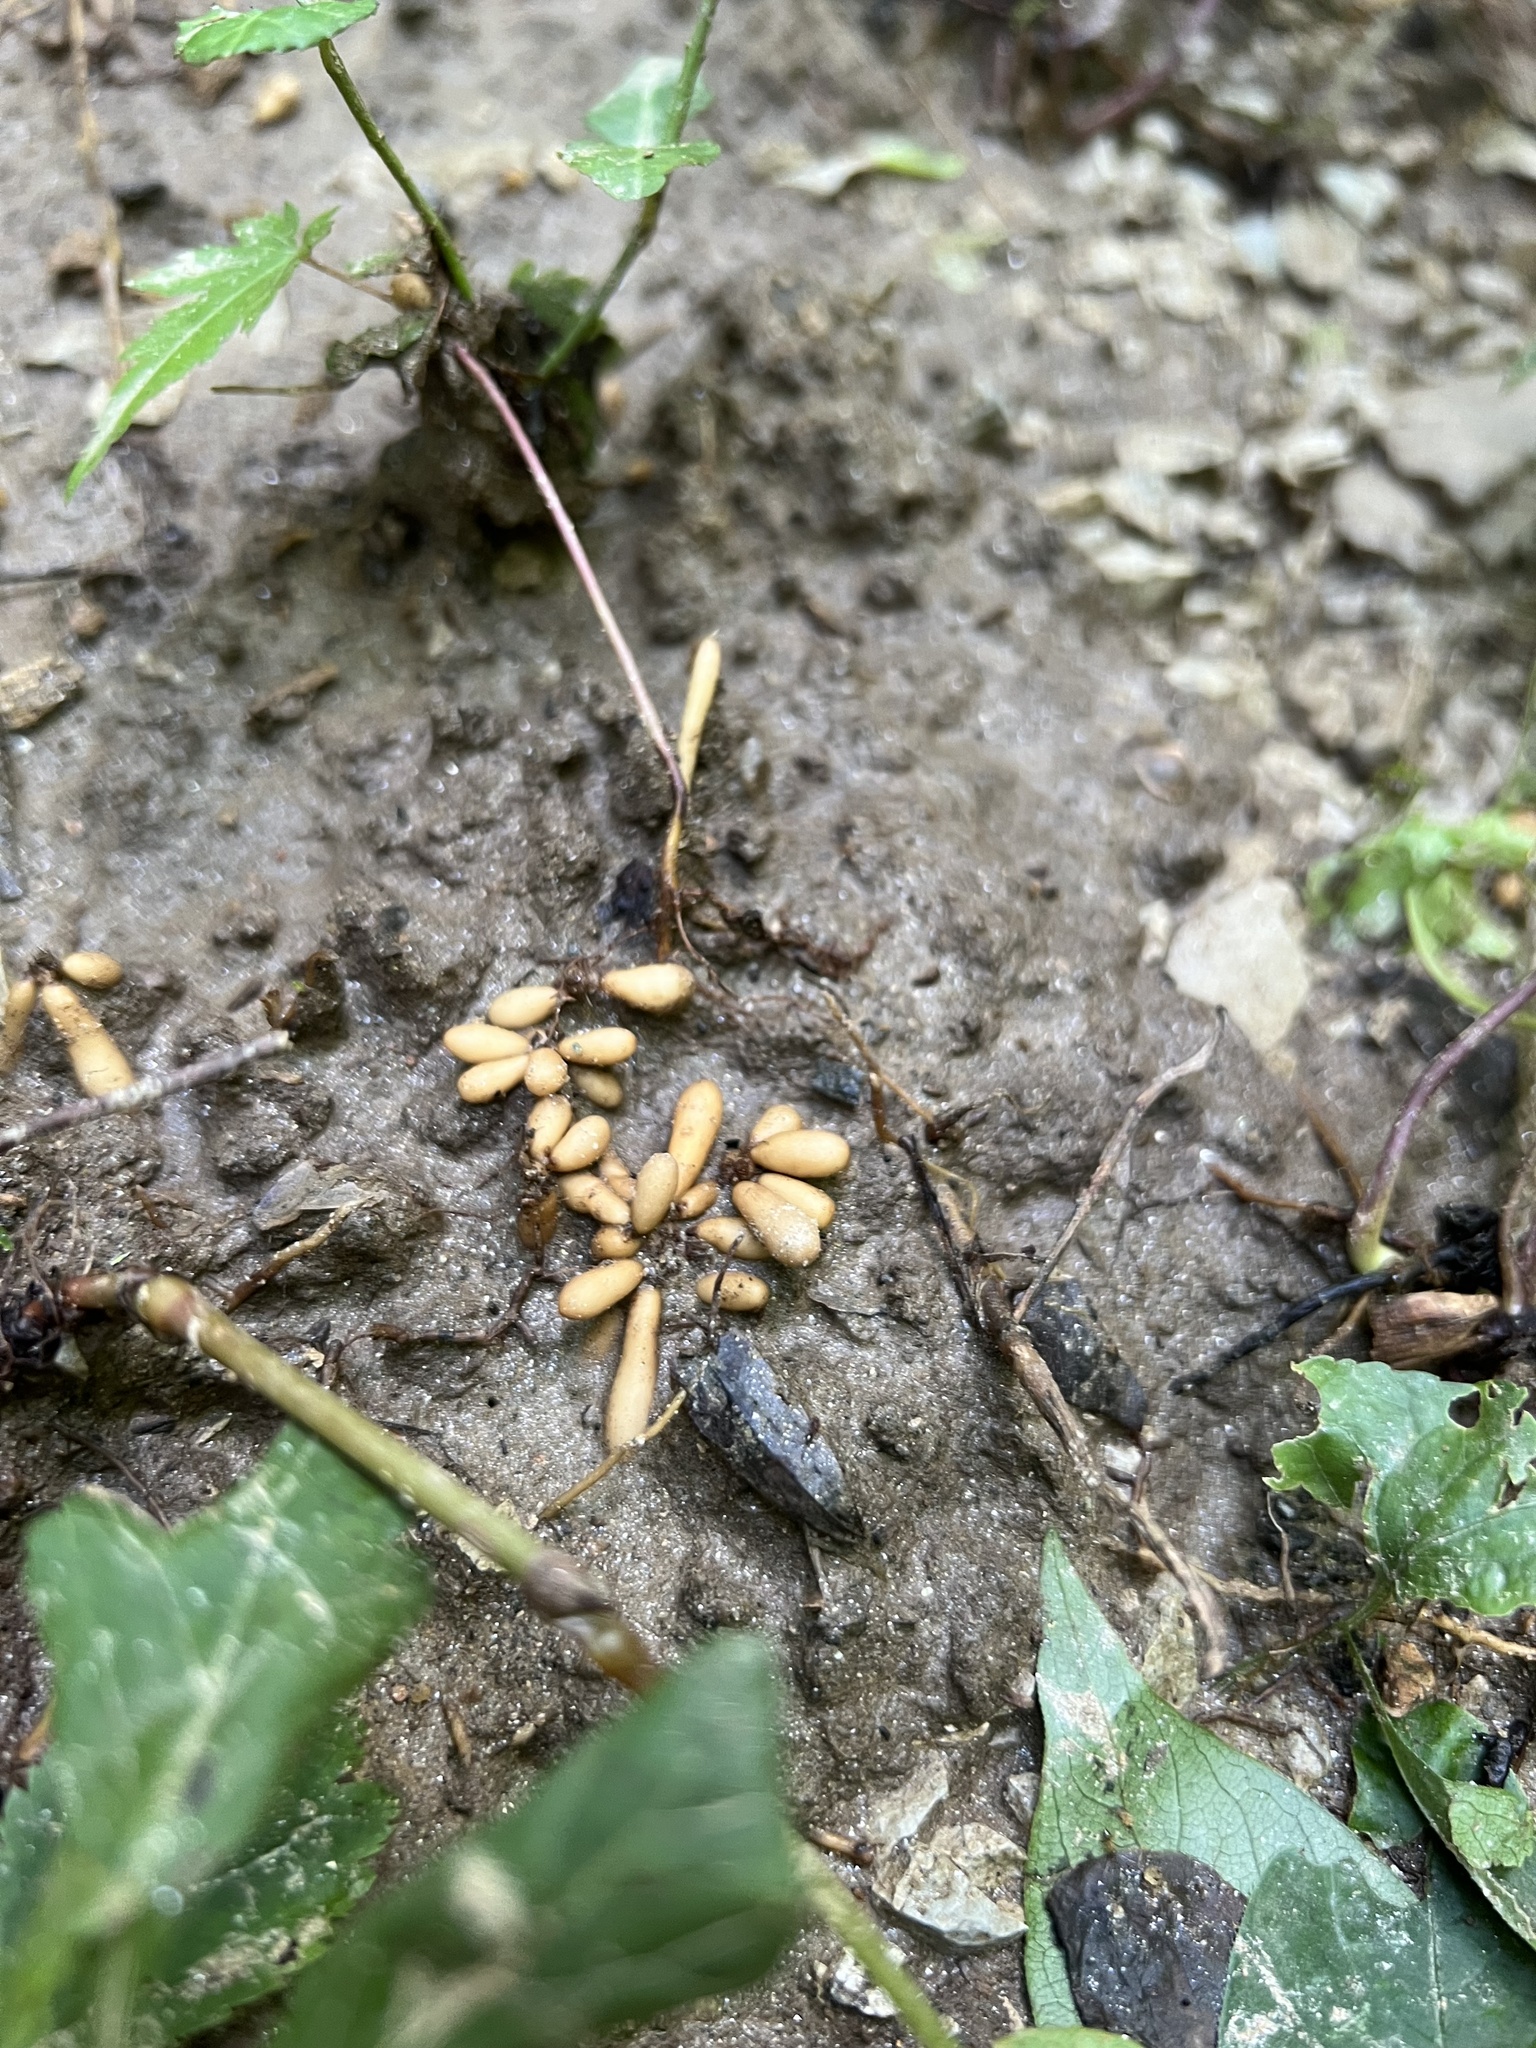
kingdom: Plantae
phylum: Tracheophyta
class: Magnoliopsida
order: Ranunculales
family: Ranunculaceae
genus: Ficaria
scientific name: Ficaria verna
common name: Lesser celandine
